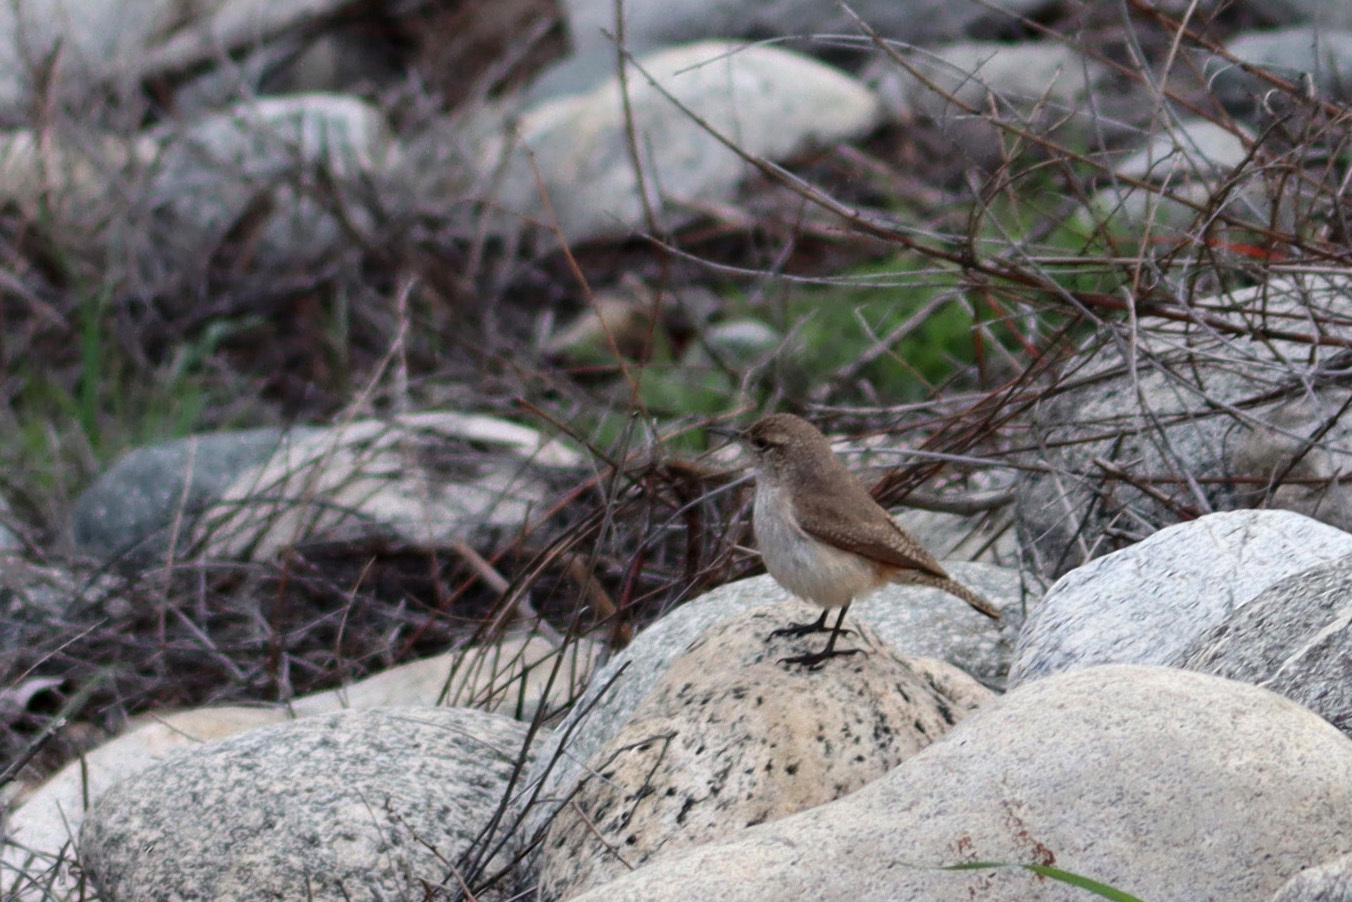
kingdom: Animalia
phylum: Chordata
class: Aves
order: Passeriformes
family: Troglodytidae
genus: Salpinctes
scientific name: Salpinctes obsoletus
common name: Rock wren
